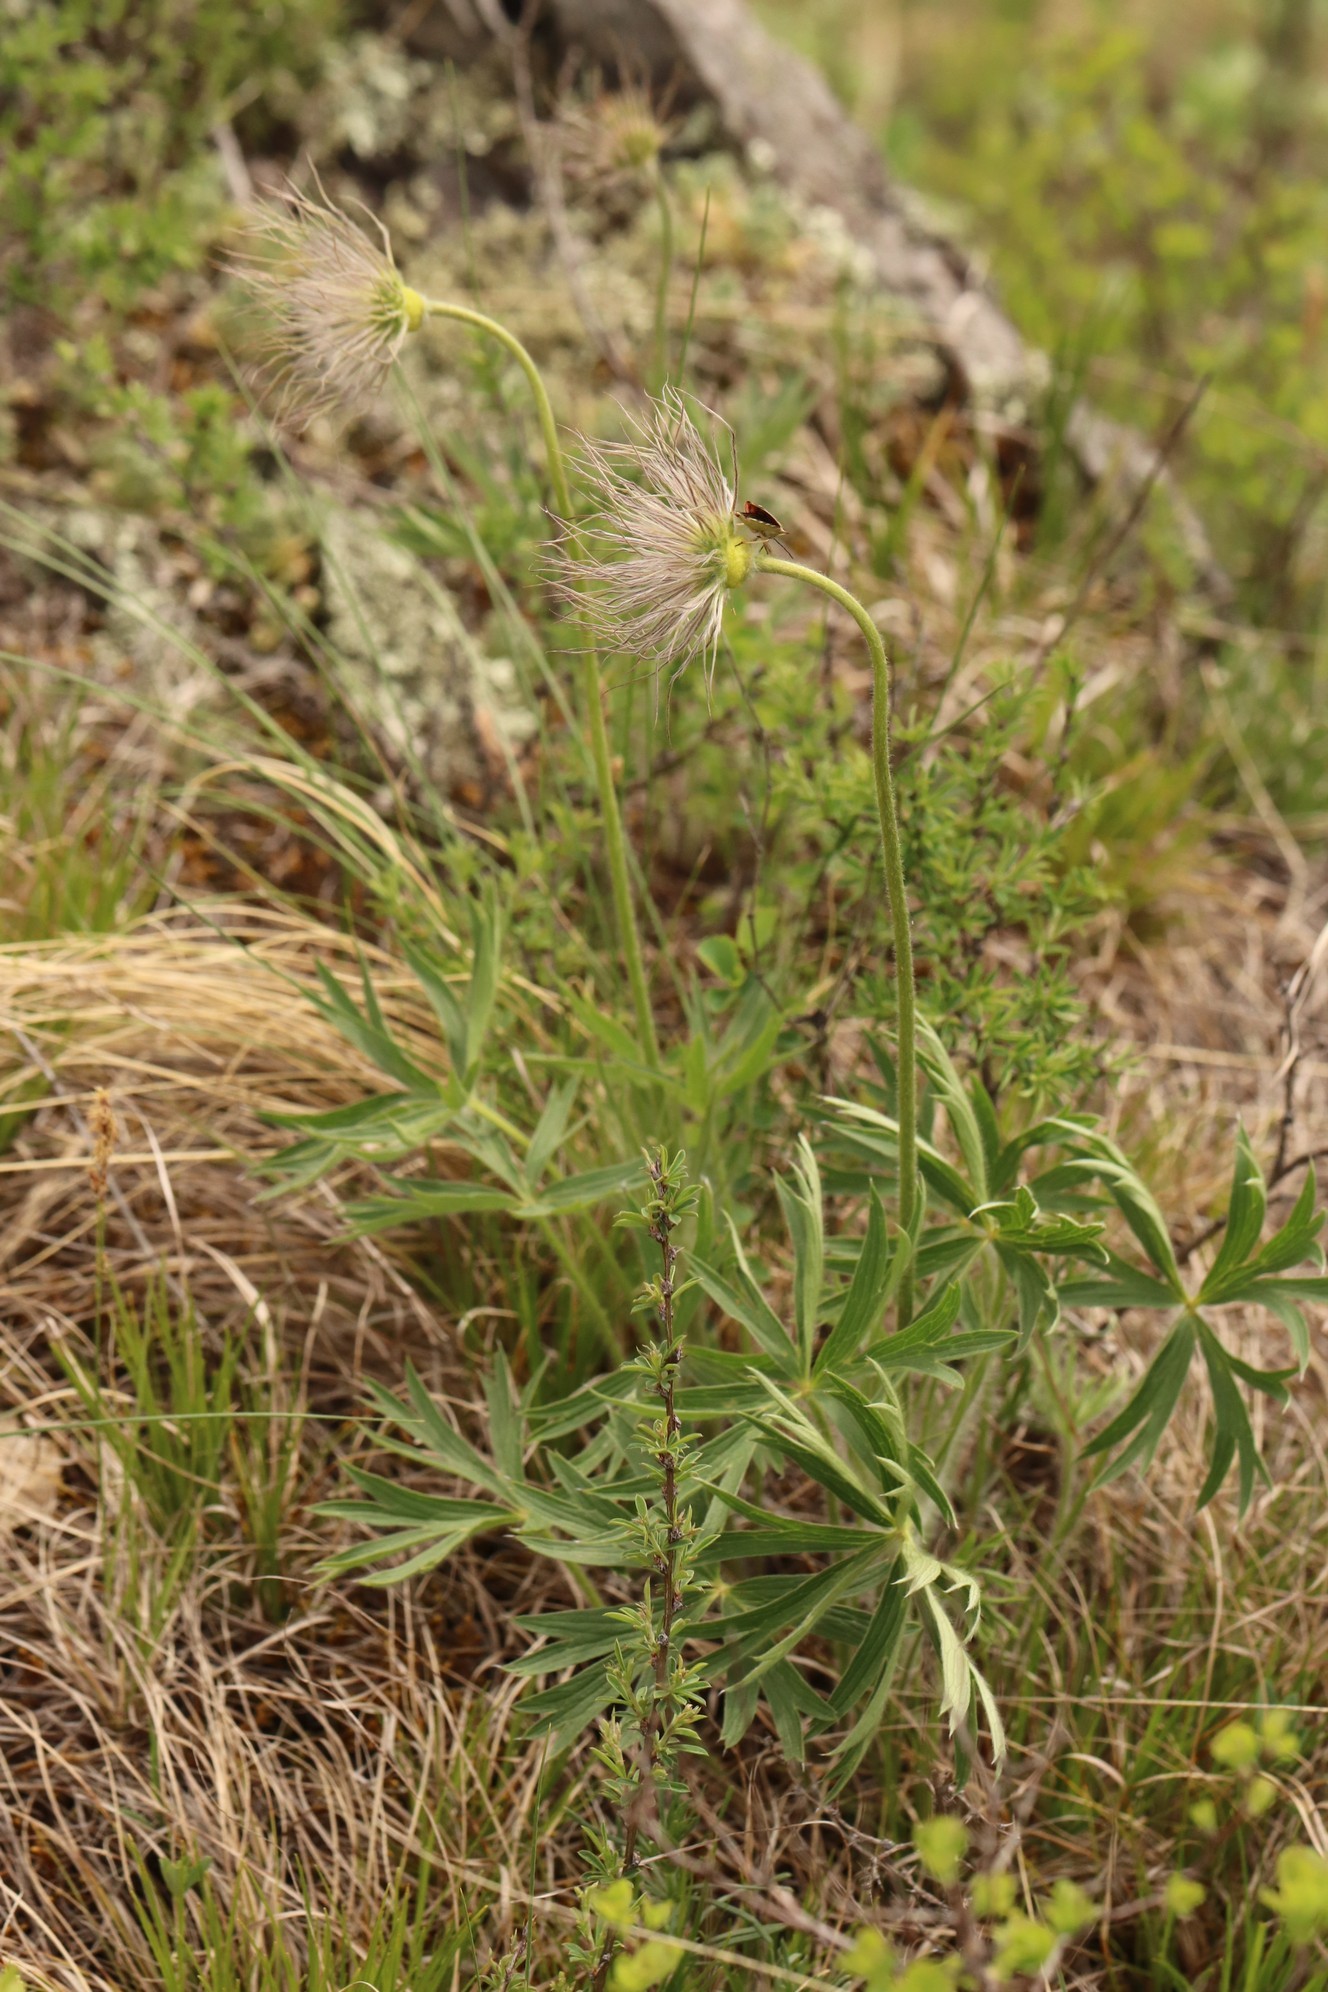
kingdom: Plantae
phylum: Tracheophyta
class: Magnoliopsida
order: Ranunculales
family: Ranunculaceae
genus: Pulsatilla
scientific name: Pulsatilla patens
